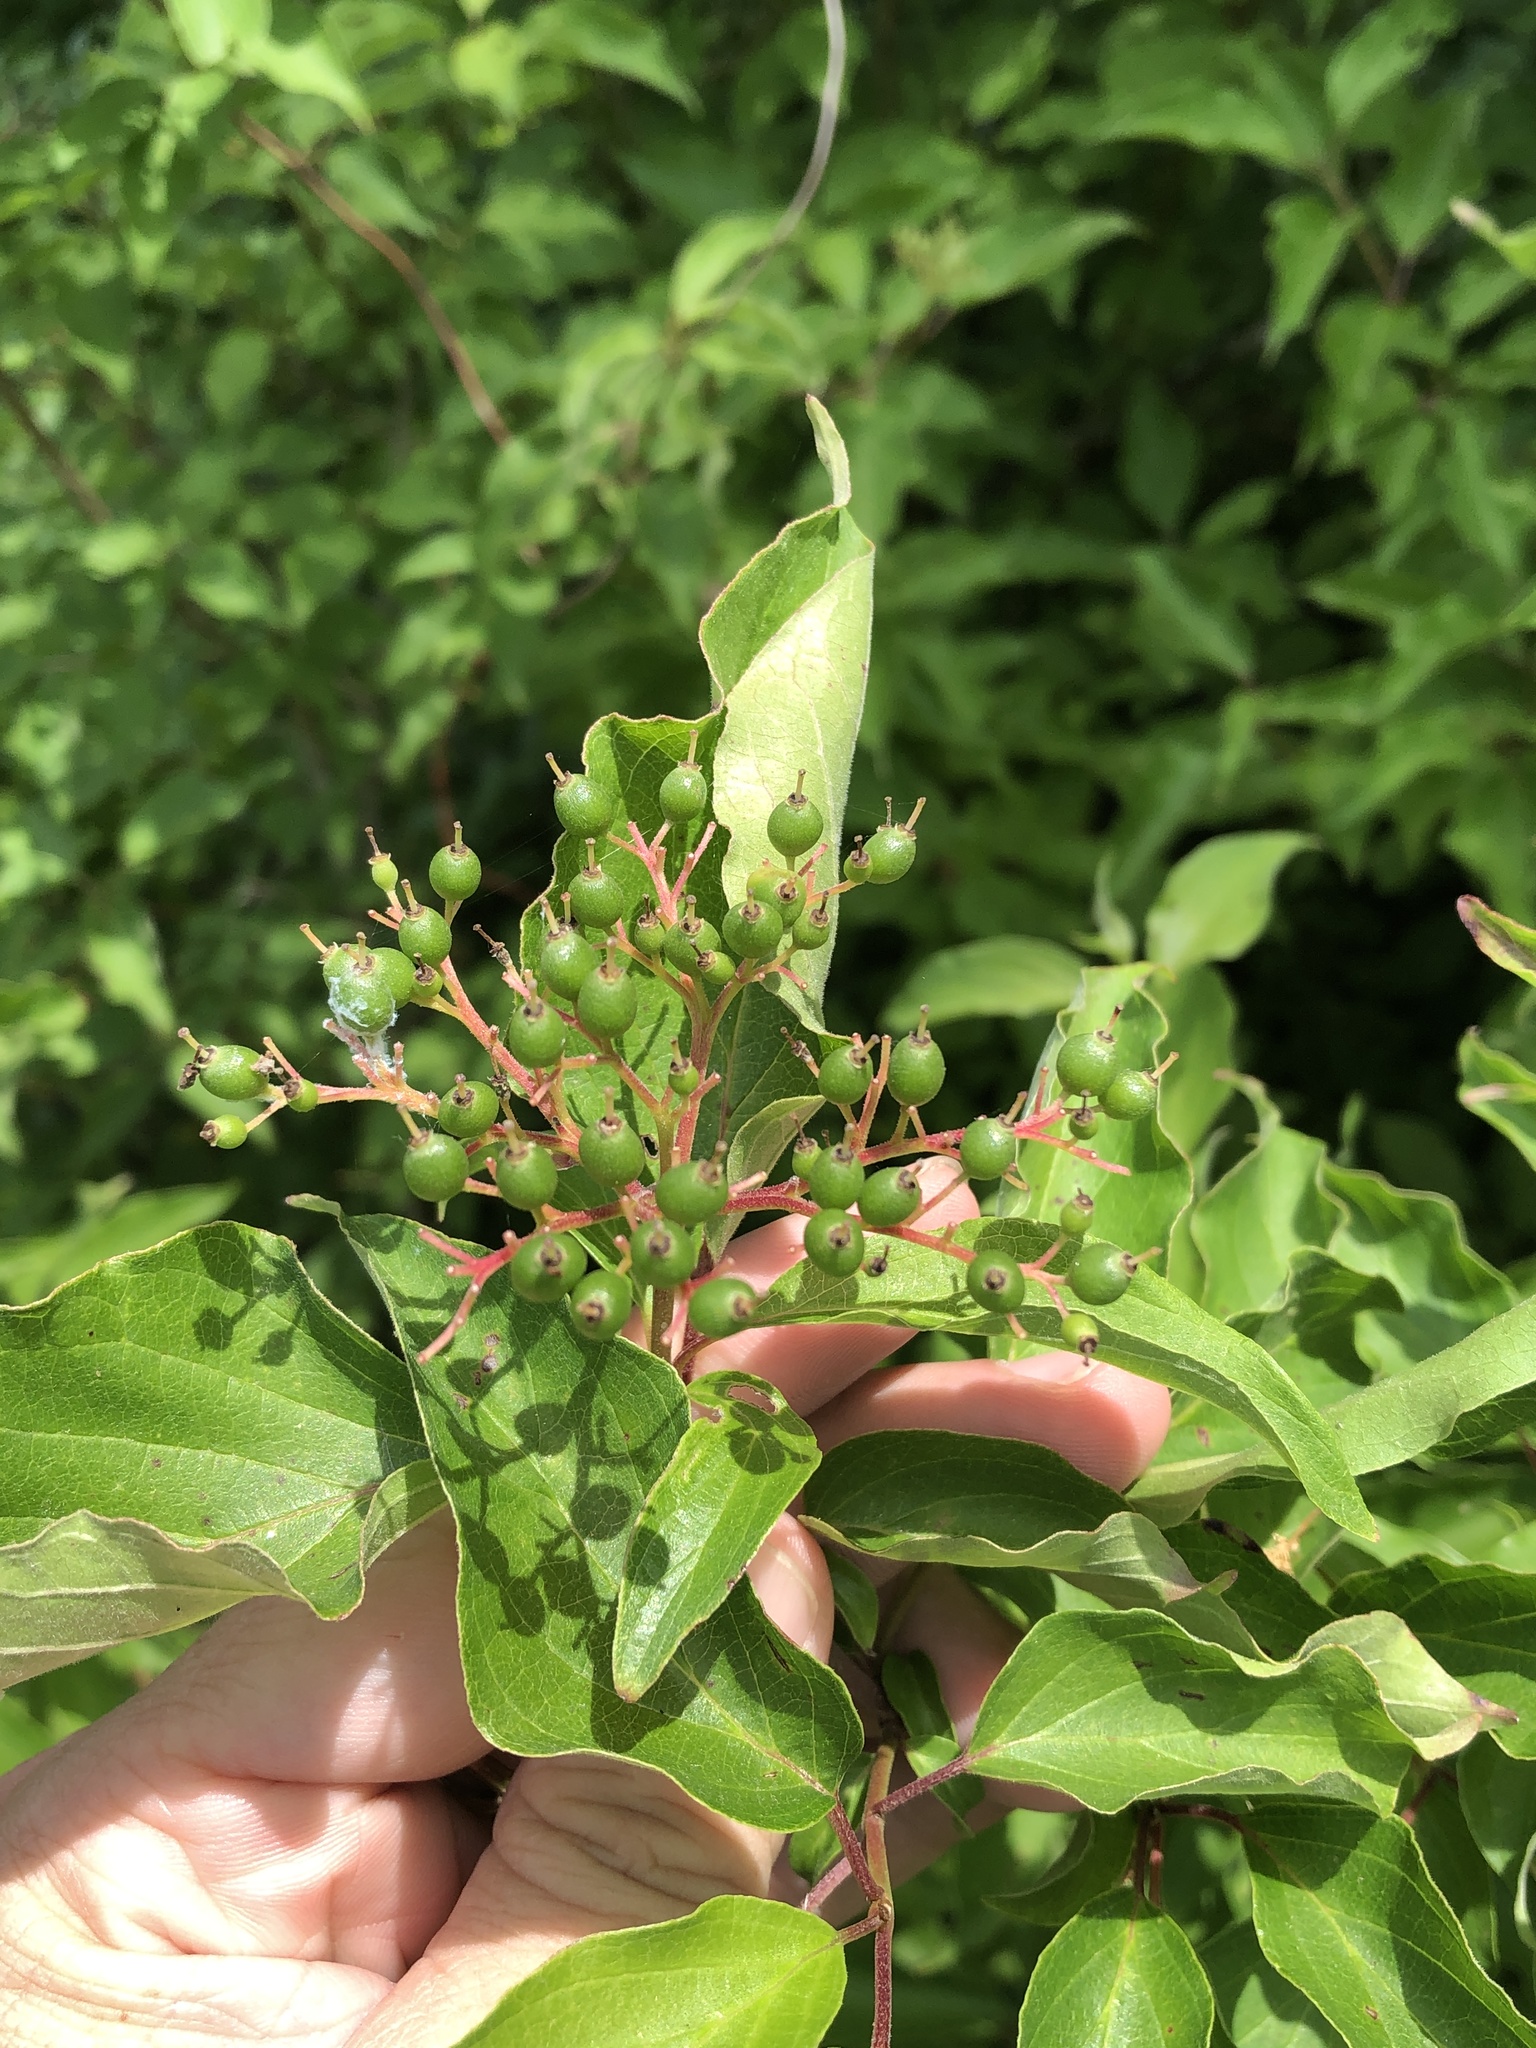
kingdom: Plantae
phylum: Tracheophyta
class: Magnoliopsida
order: Cornales
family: Cornaceae
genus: Cornus
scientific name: Cornus drummondii
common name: Rough-leaf dogwood
